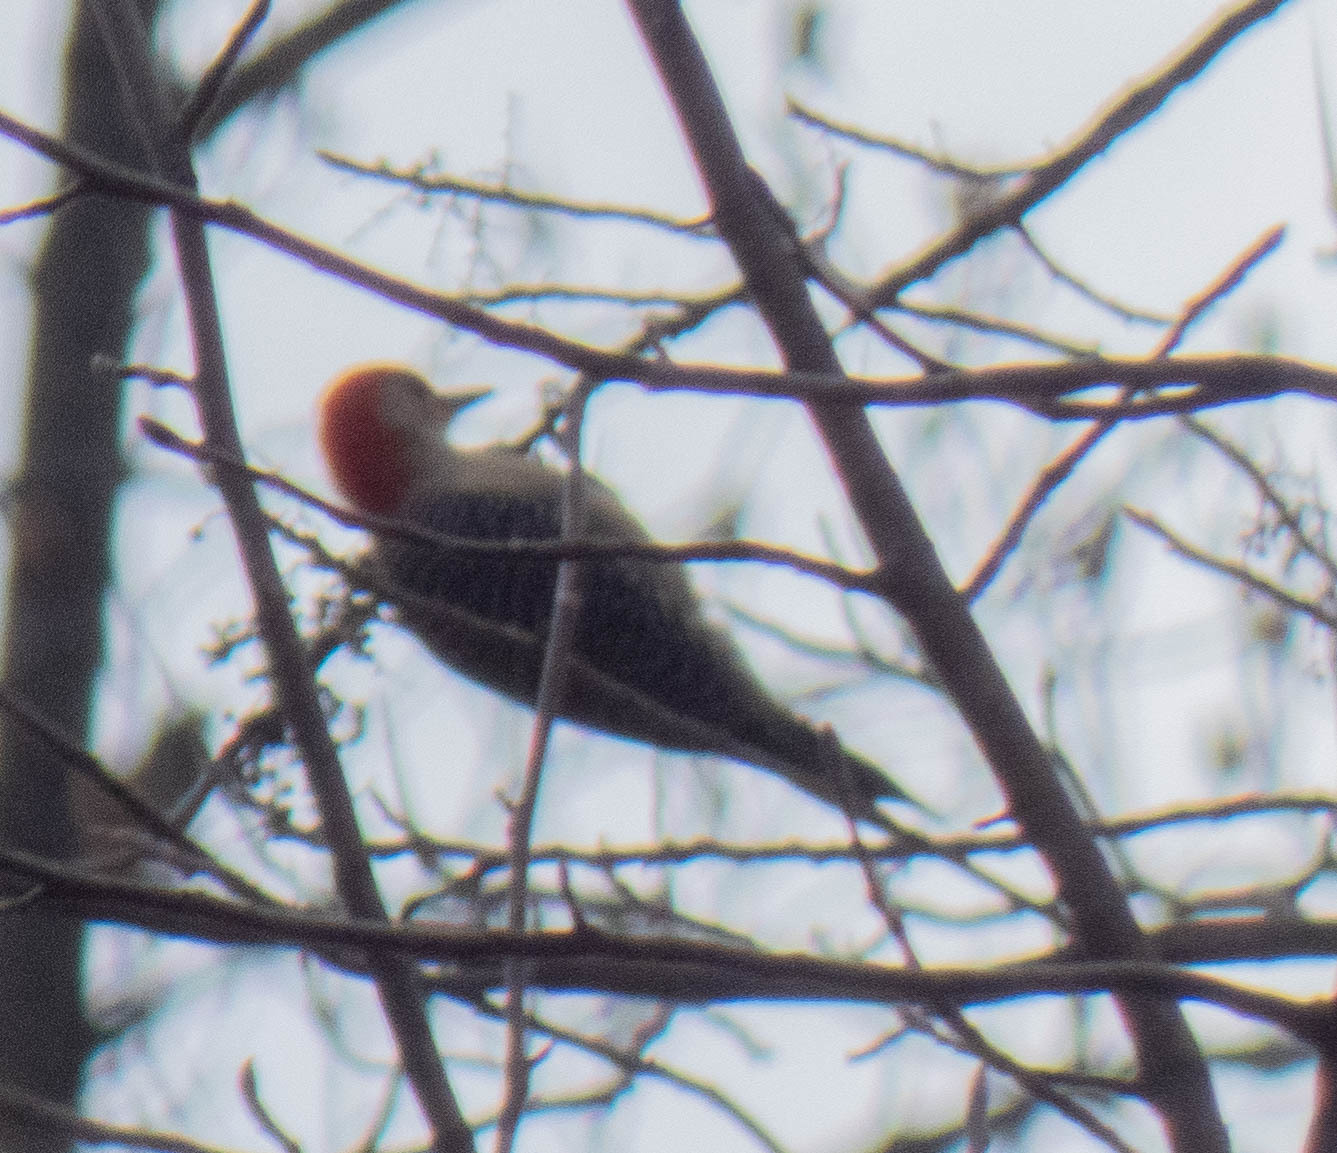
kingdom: Animalia
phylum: Chordata
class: Aves
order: Piciformes
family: Picidae
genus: Melanerpes
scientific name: Melanerpes carolinus
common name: Red-bellied woodpecker
